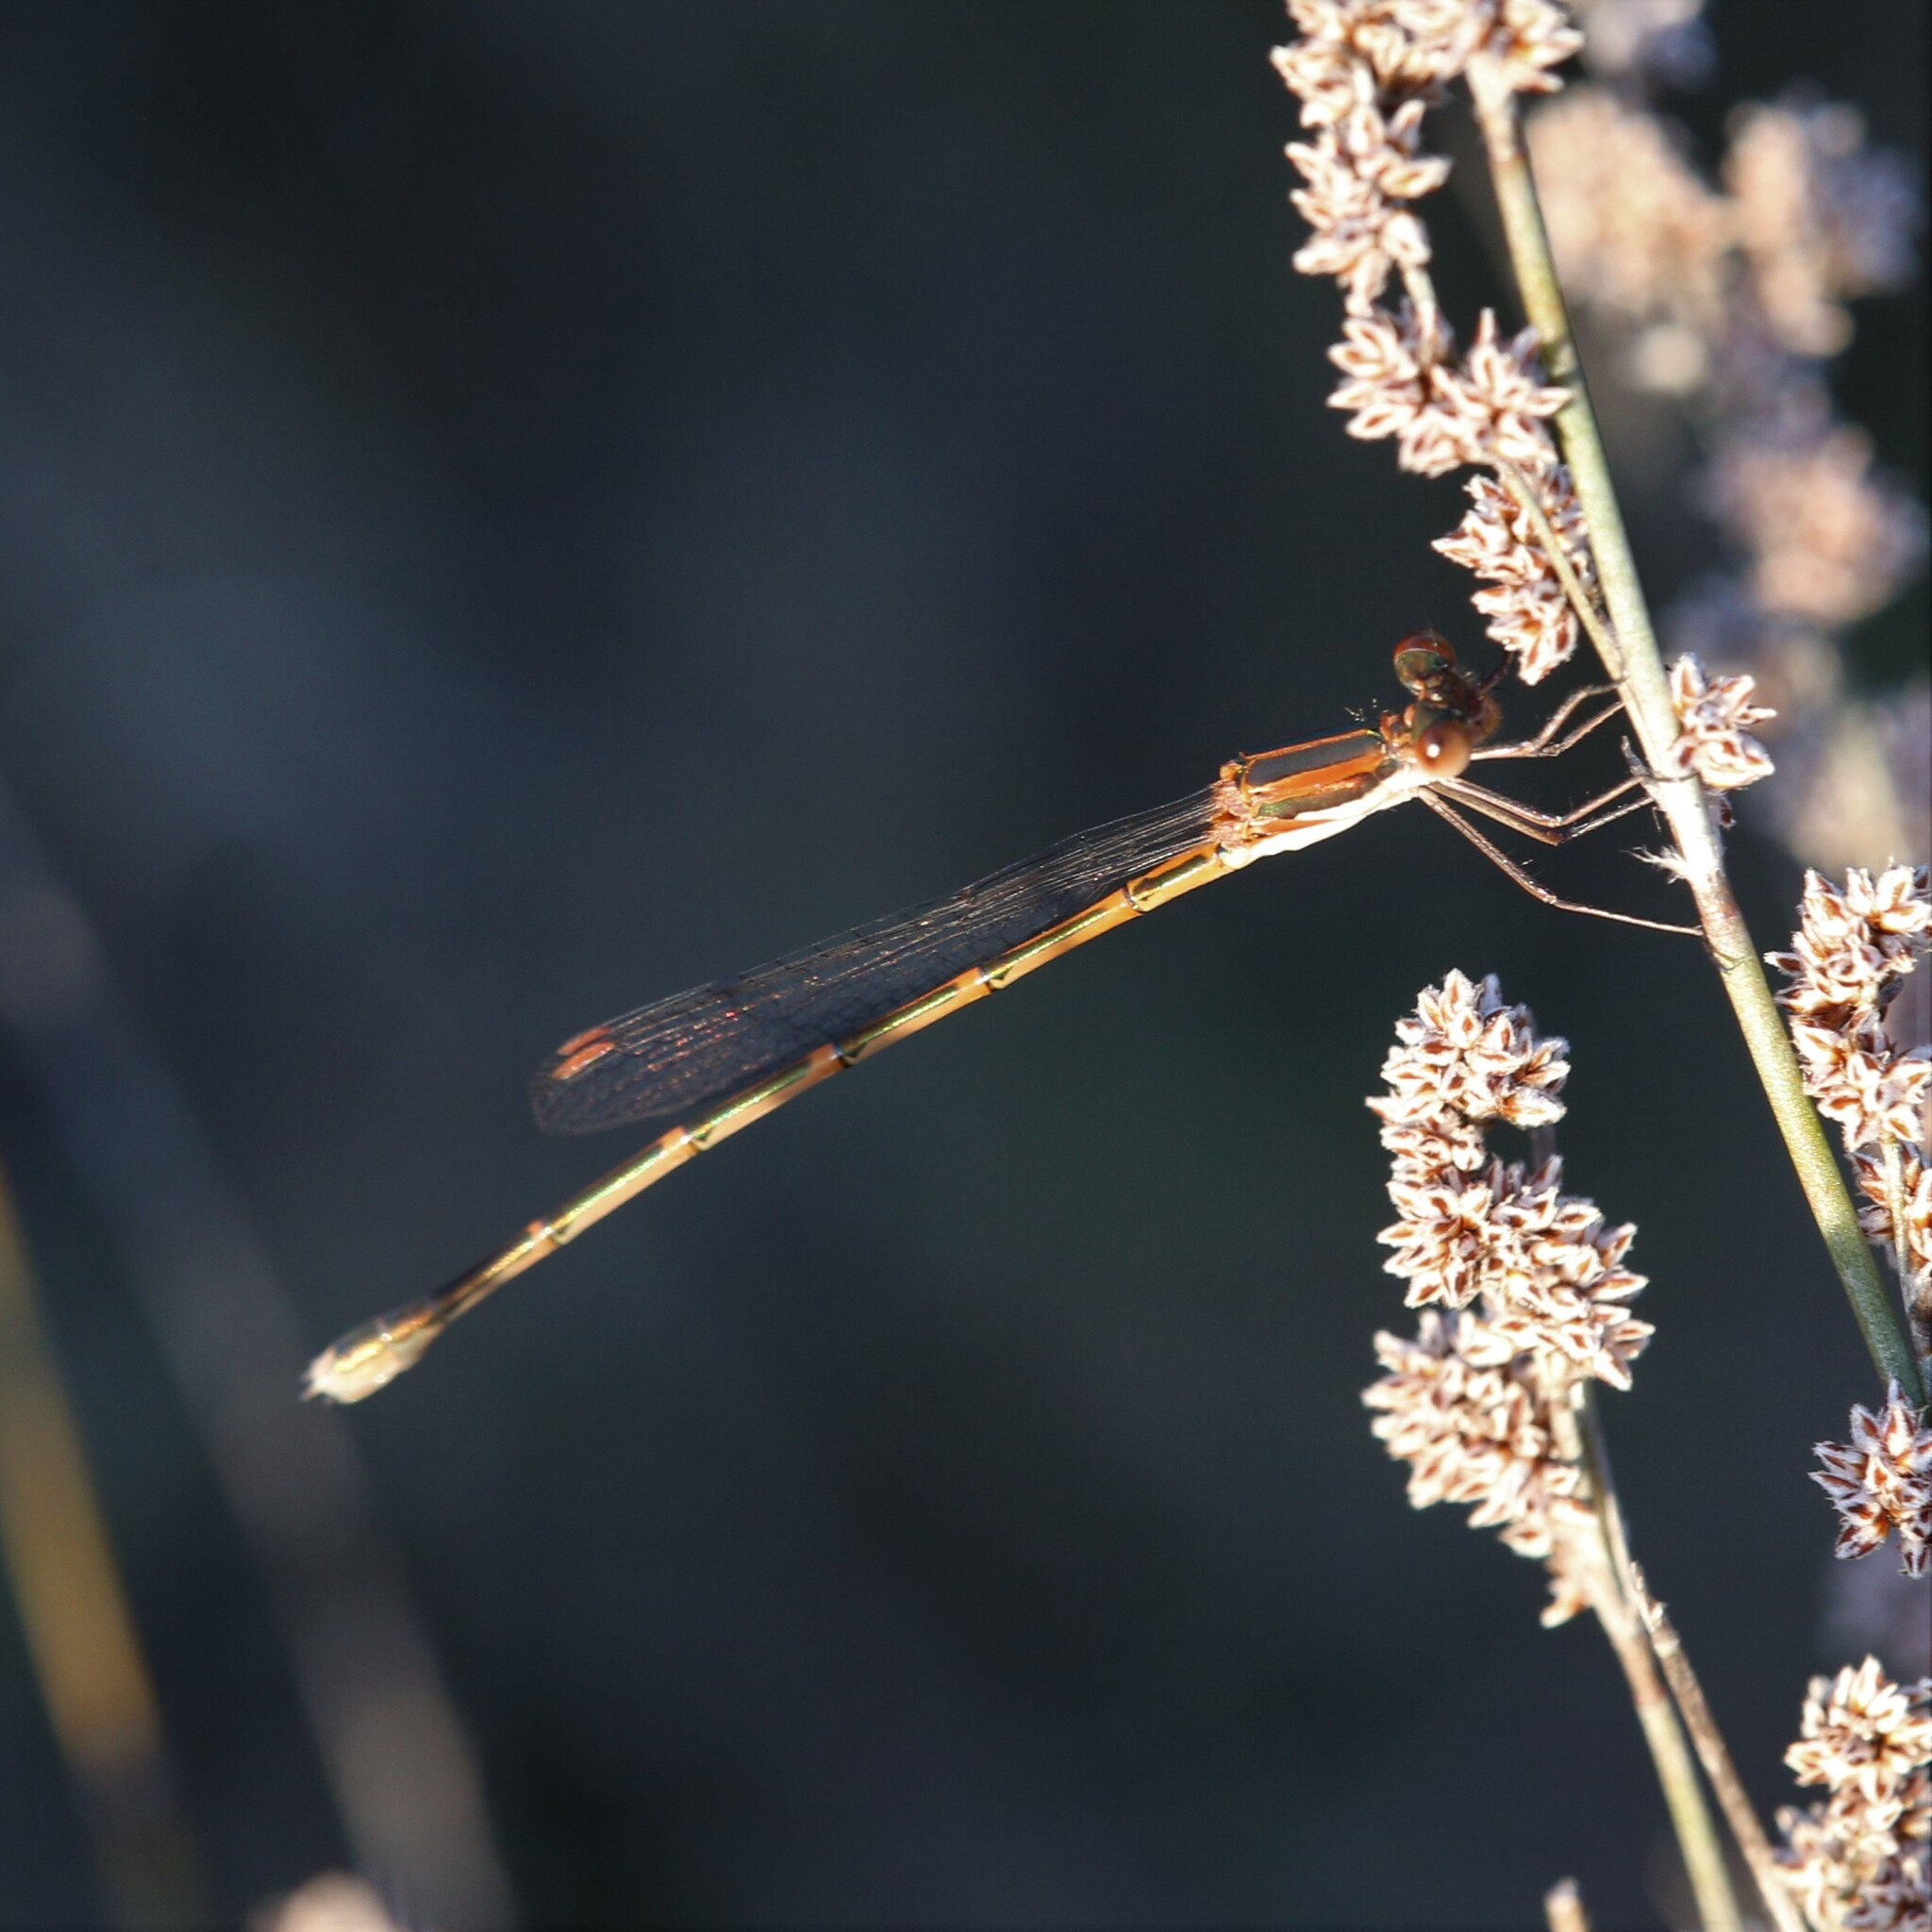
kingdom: Animalia
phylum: Arthropoda
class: Insecta
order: Odonata
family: Lestidae
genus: Austrolestes
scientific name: Austrolestes analis
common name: Slender ringtail
